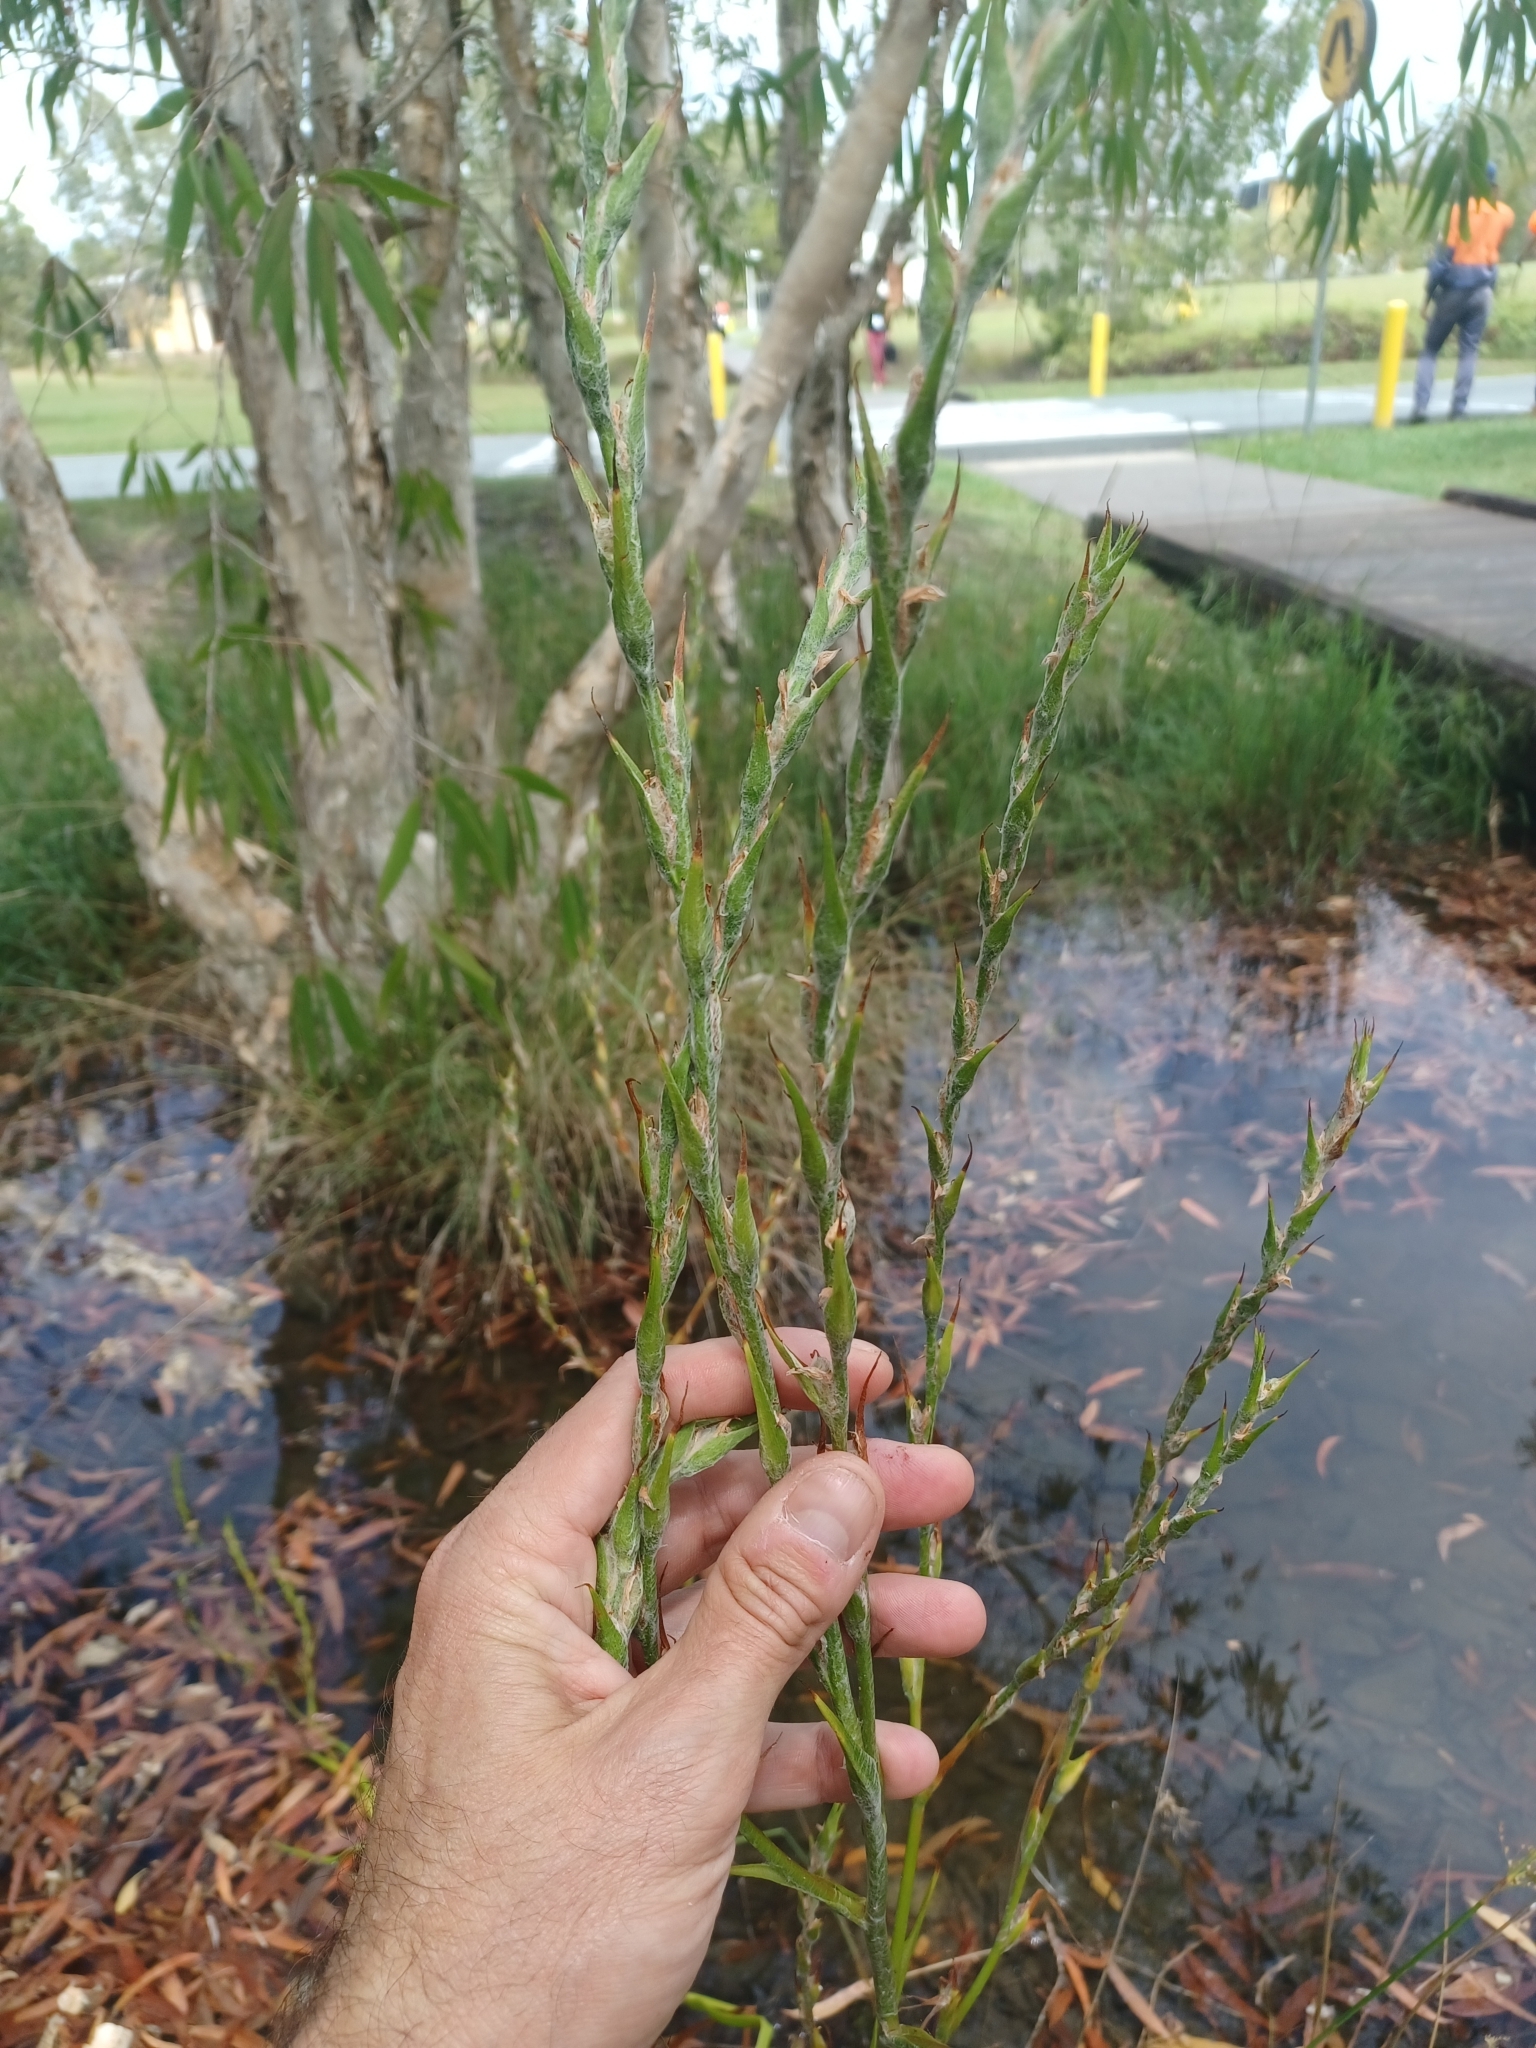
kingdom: Plantae
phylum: Tracheophyta
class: Liliopsida
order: Commelinales
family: Philydraceae
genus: Philydrum
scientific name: Philydrum lanuginosum
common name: Woolly frog's mouth
